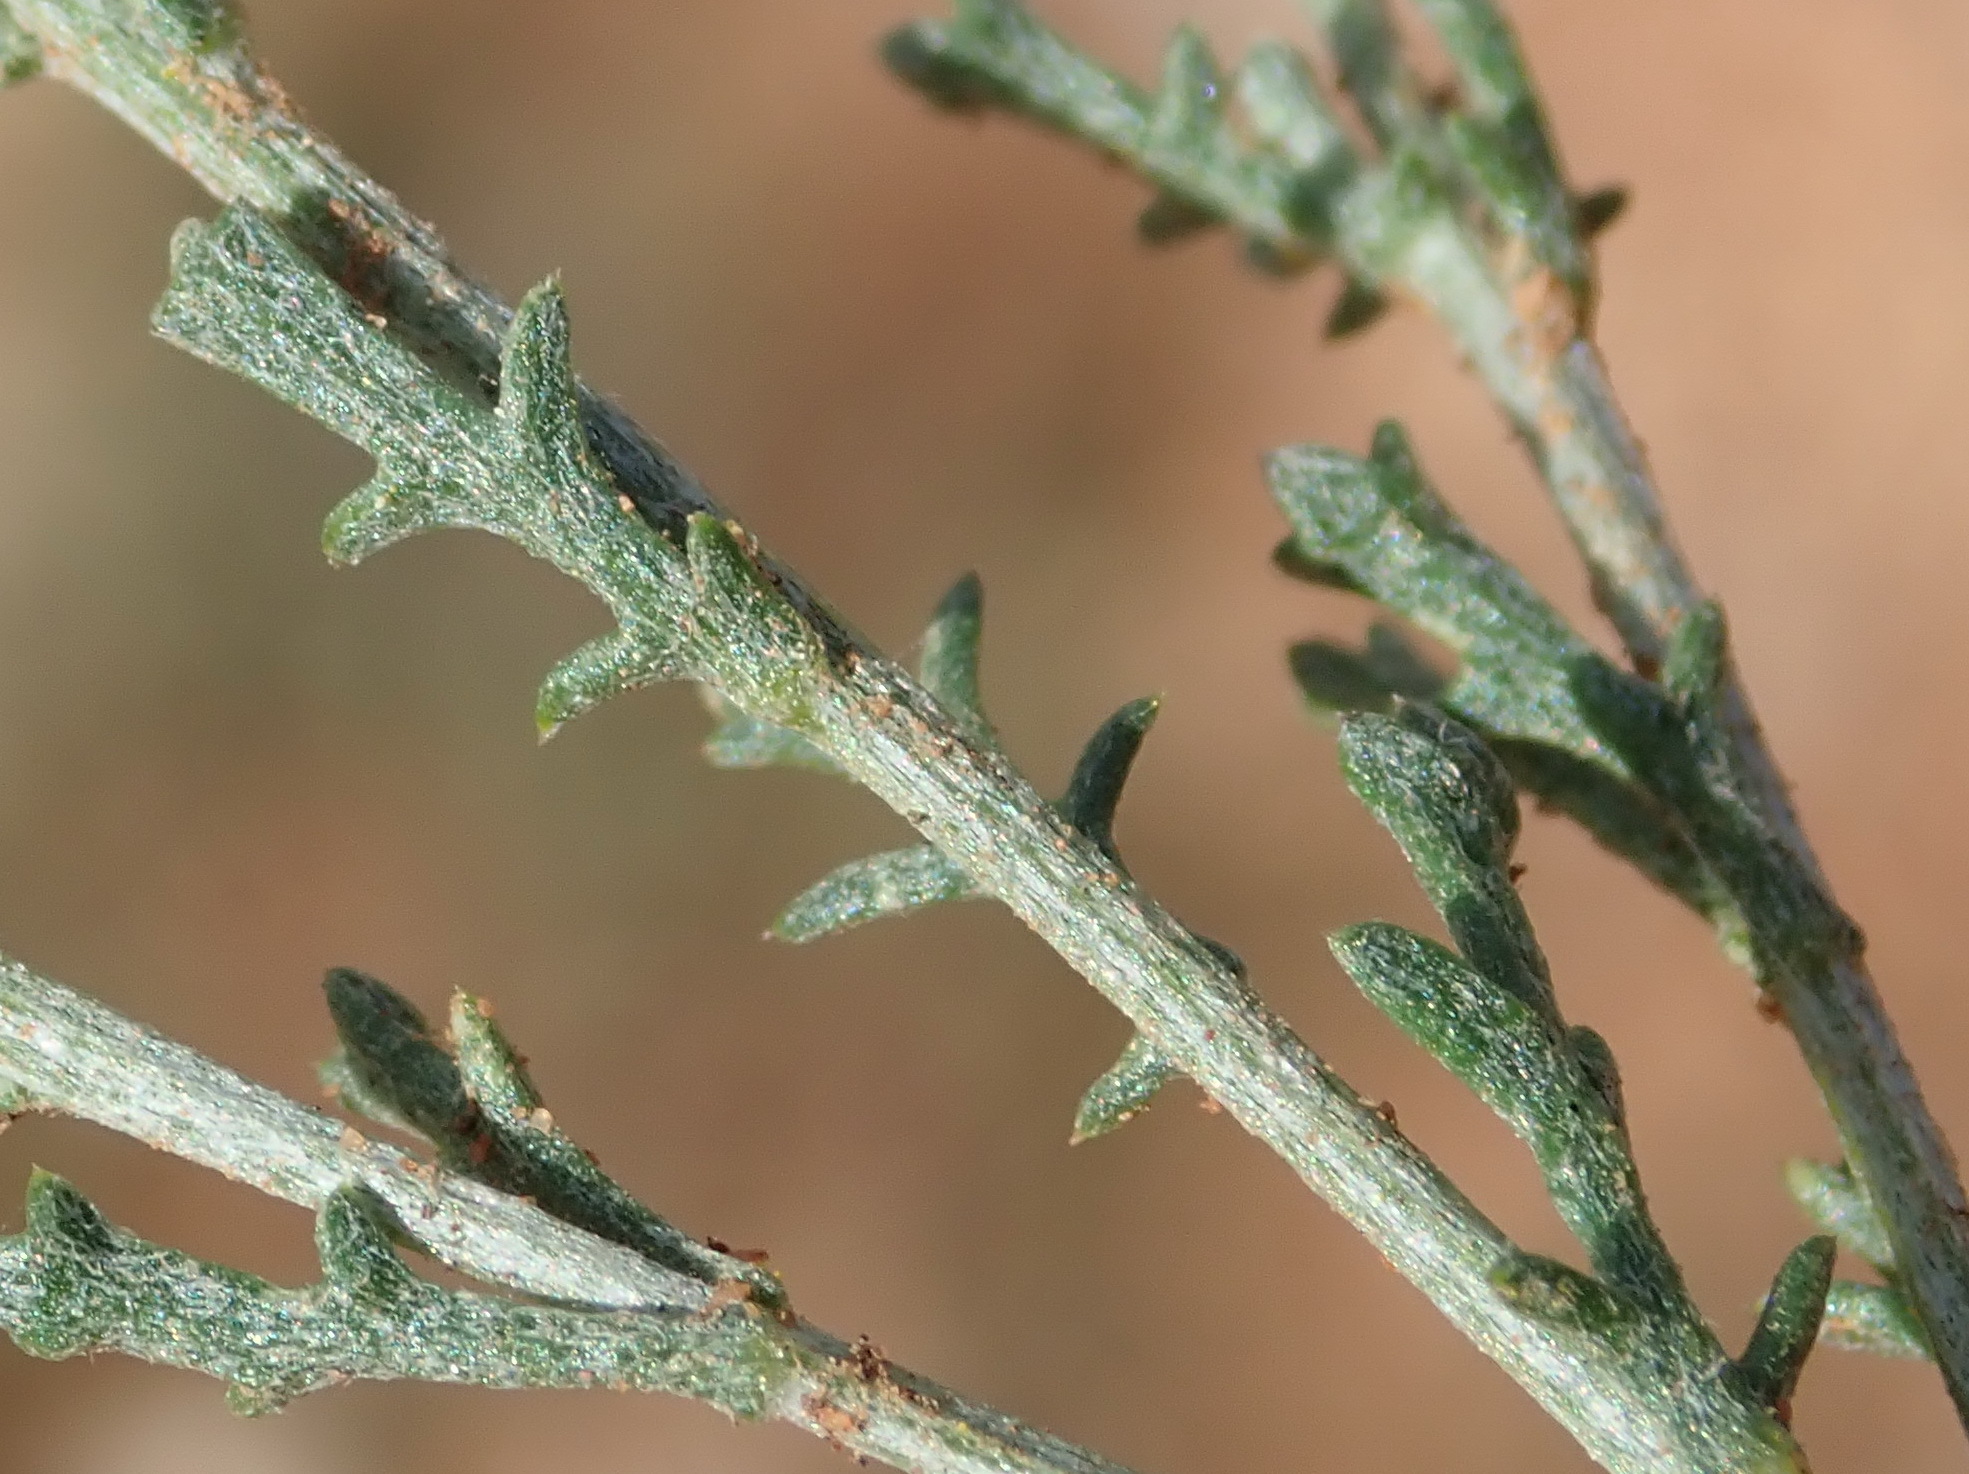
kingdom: Plantae
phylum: Tracheophyta
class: Magnoliopsida
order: Asterales
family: Asteraceae
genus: Pentzia
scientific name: Pentzia incana
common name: African sheepbush
